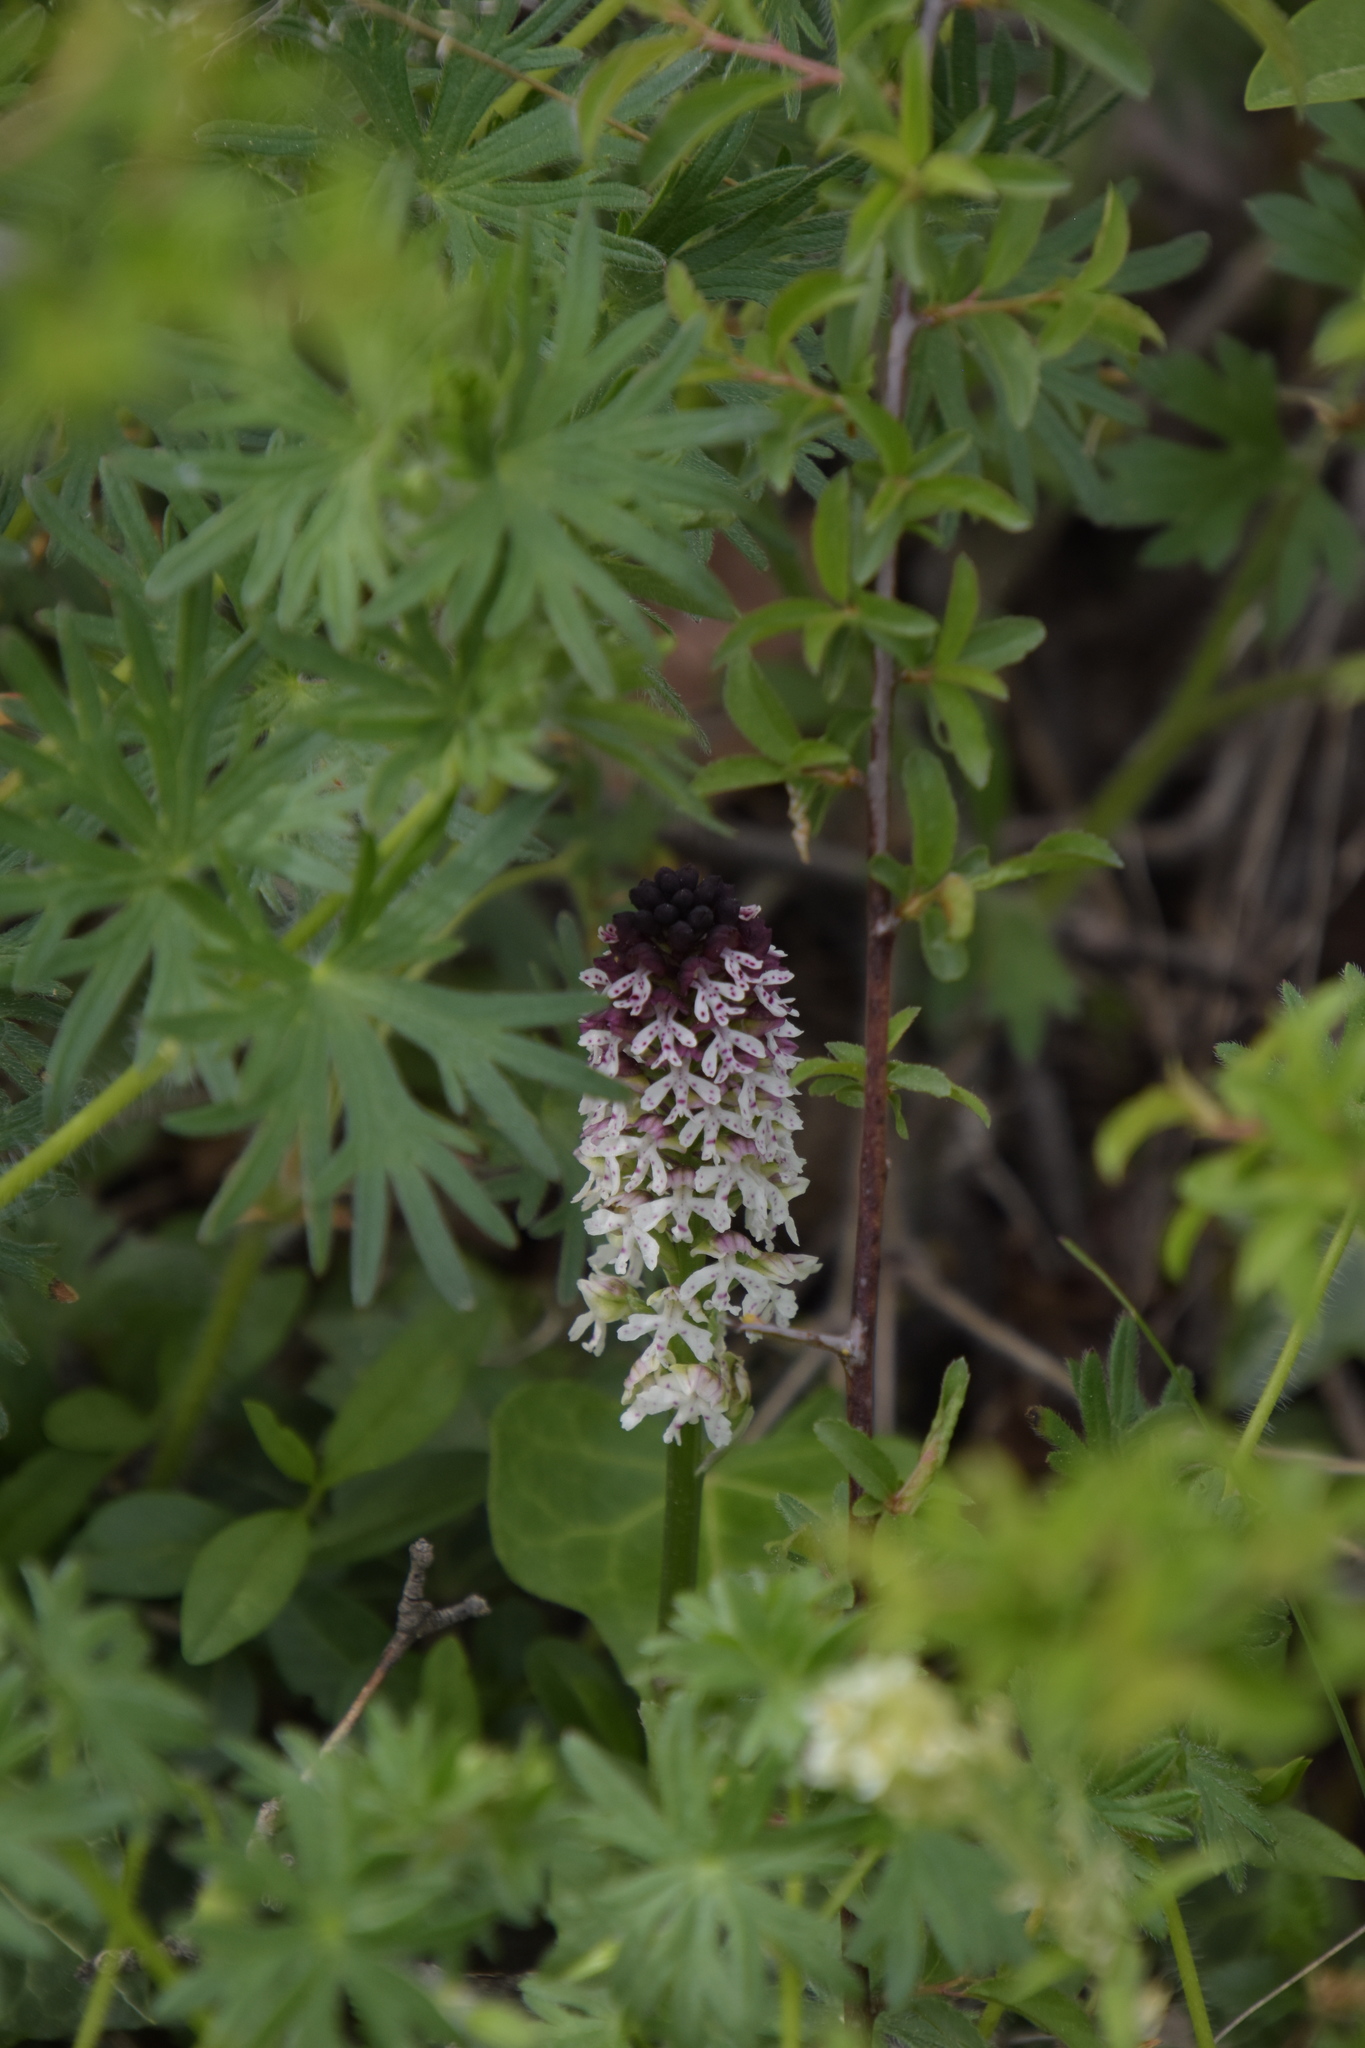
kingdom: Plantae
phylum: Tracheophyta
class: Liliopsida
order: Asparagales
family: Orchidaceae
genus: Neotinea
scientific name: Neotinea ustulata
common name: Burnt orchid
